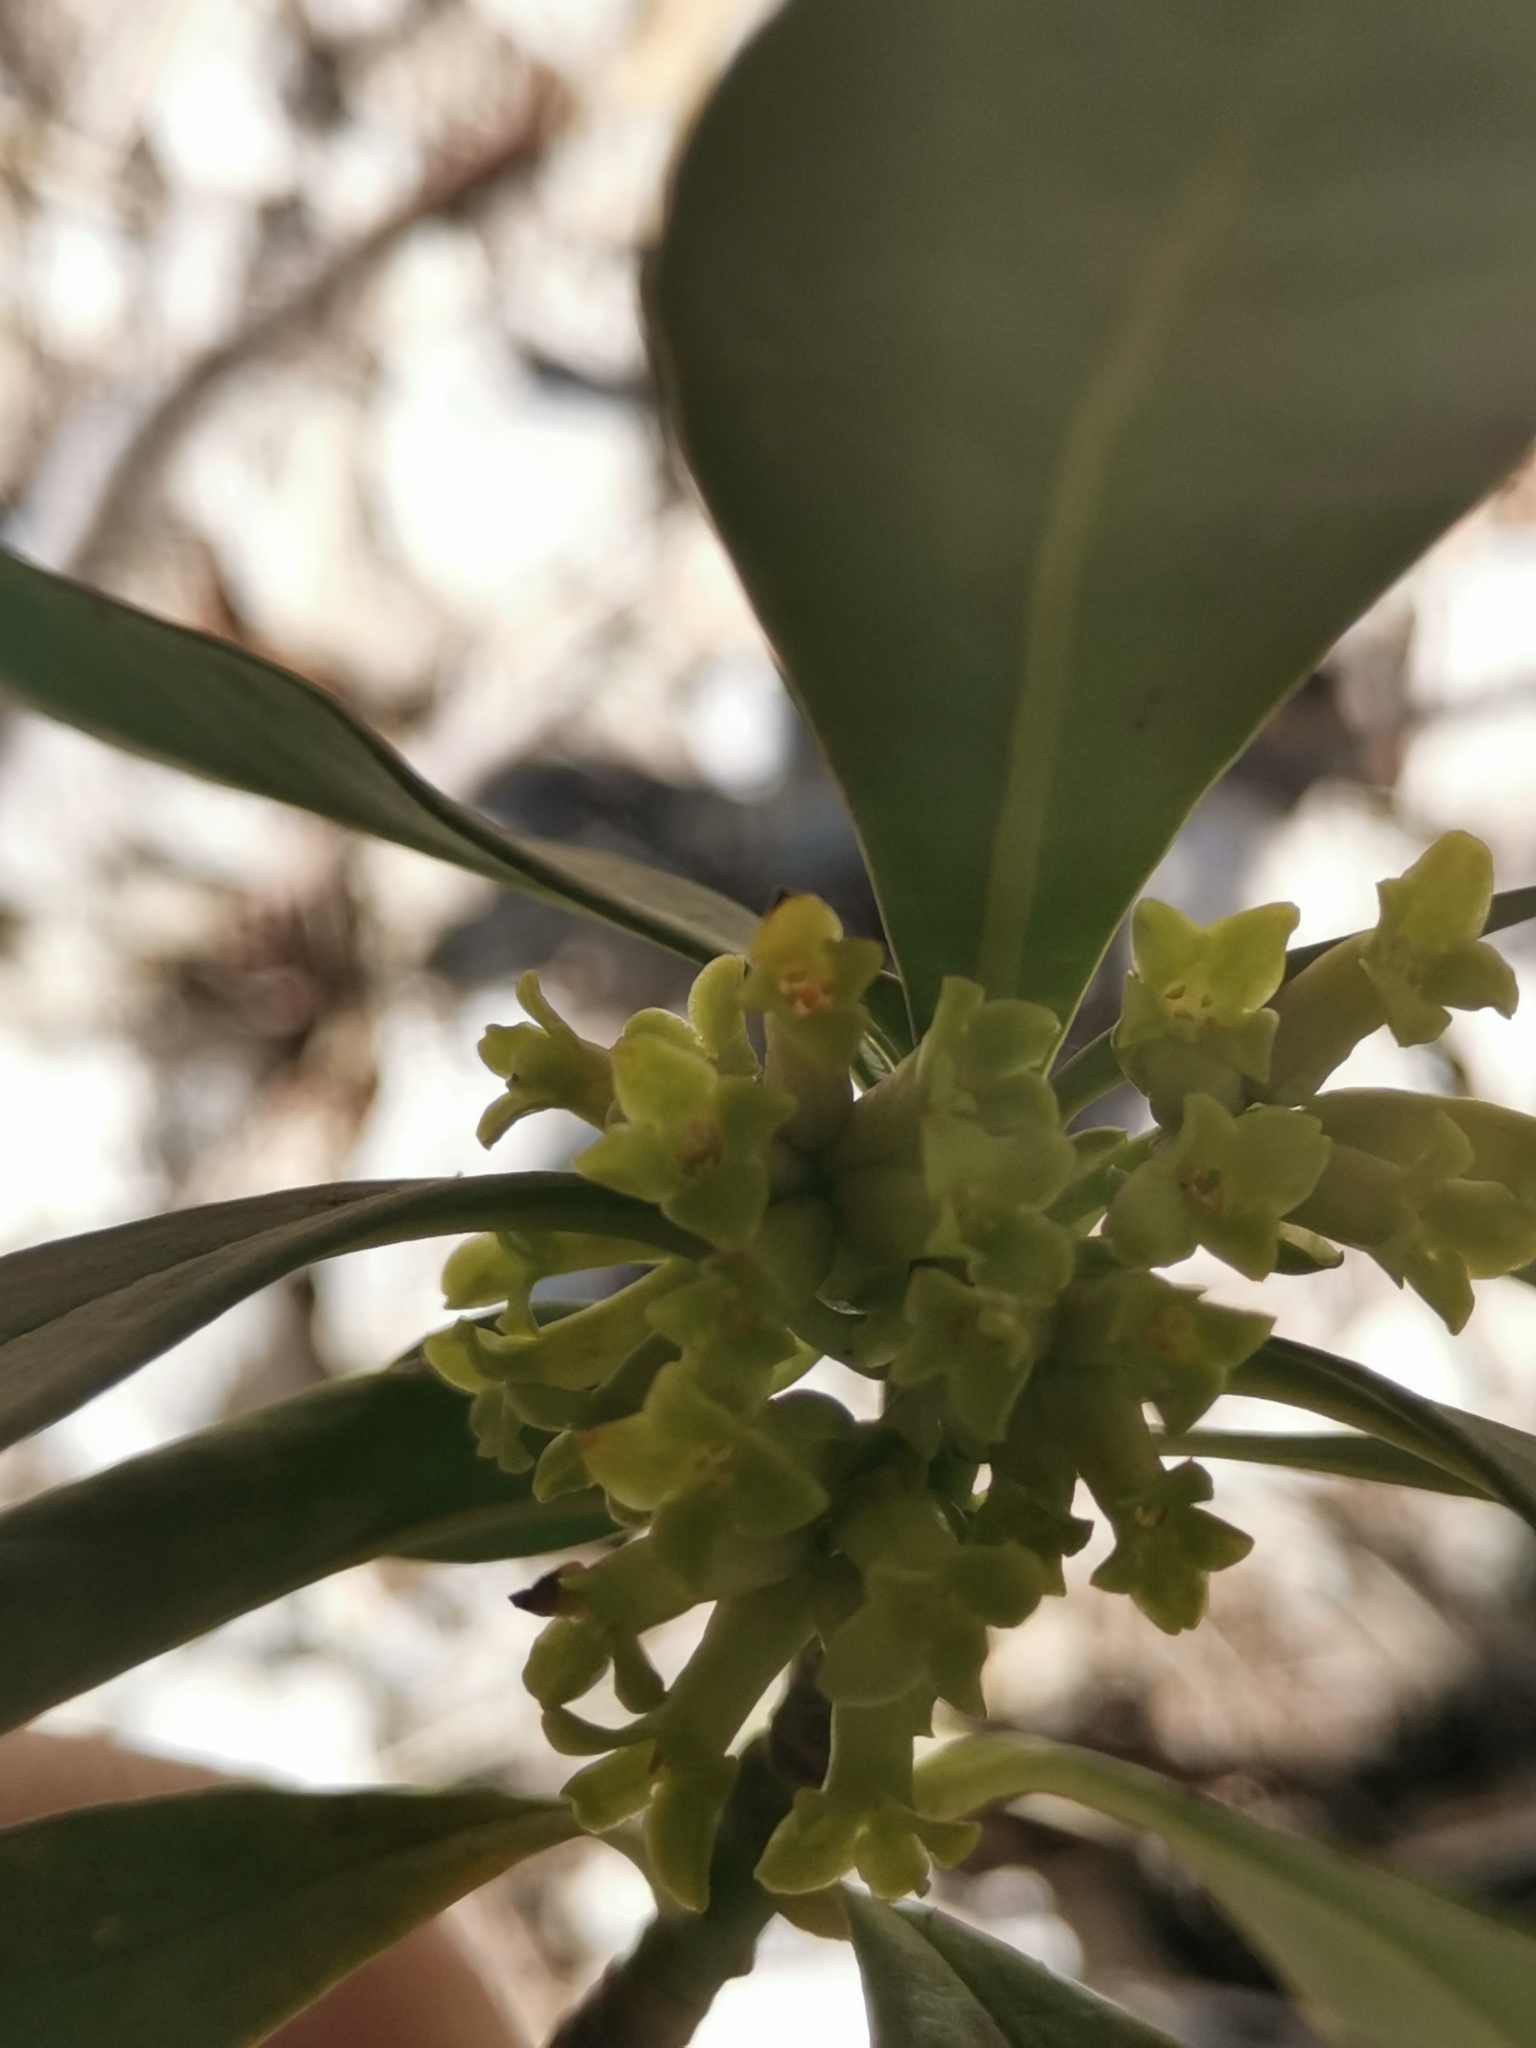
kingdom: Plantae
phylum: Tracheophyta
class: Magnoliopsida
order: Malvales
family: Thymelaeaceae
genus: Daphne
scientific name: Daphne laureola
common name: Spurge-laurel
